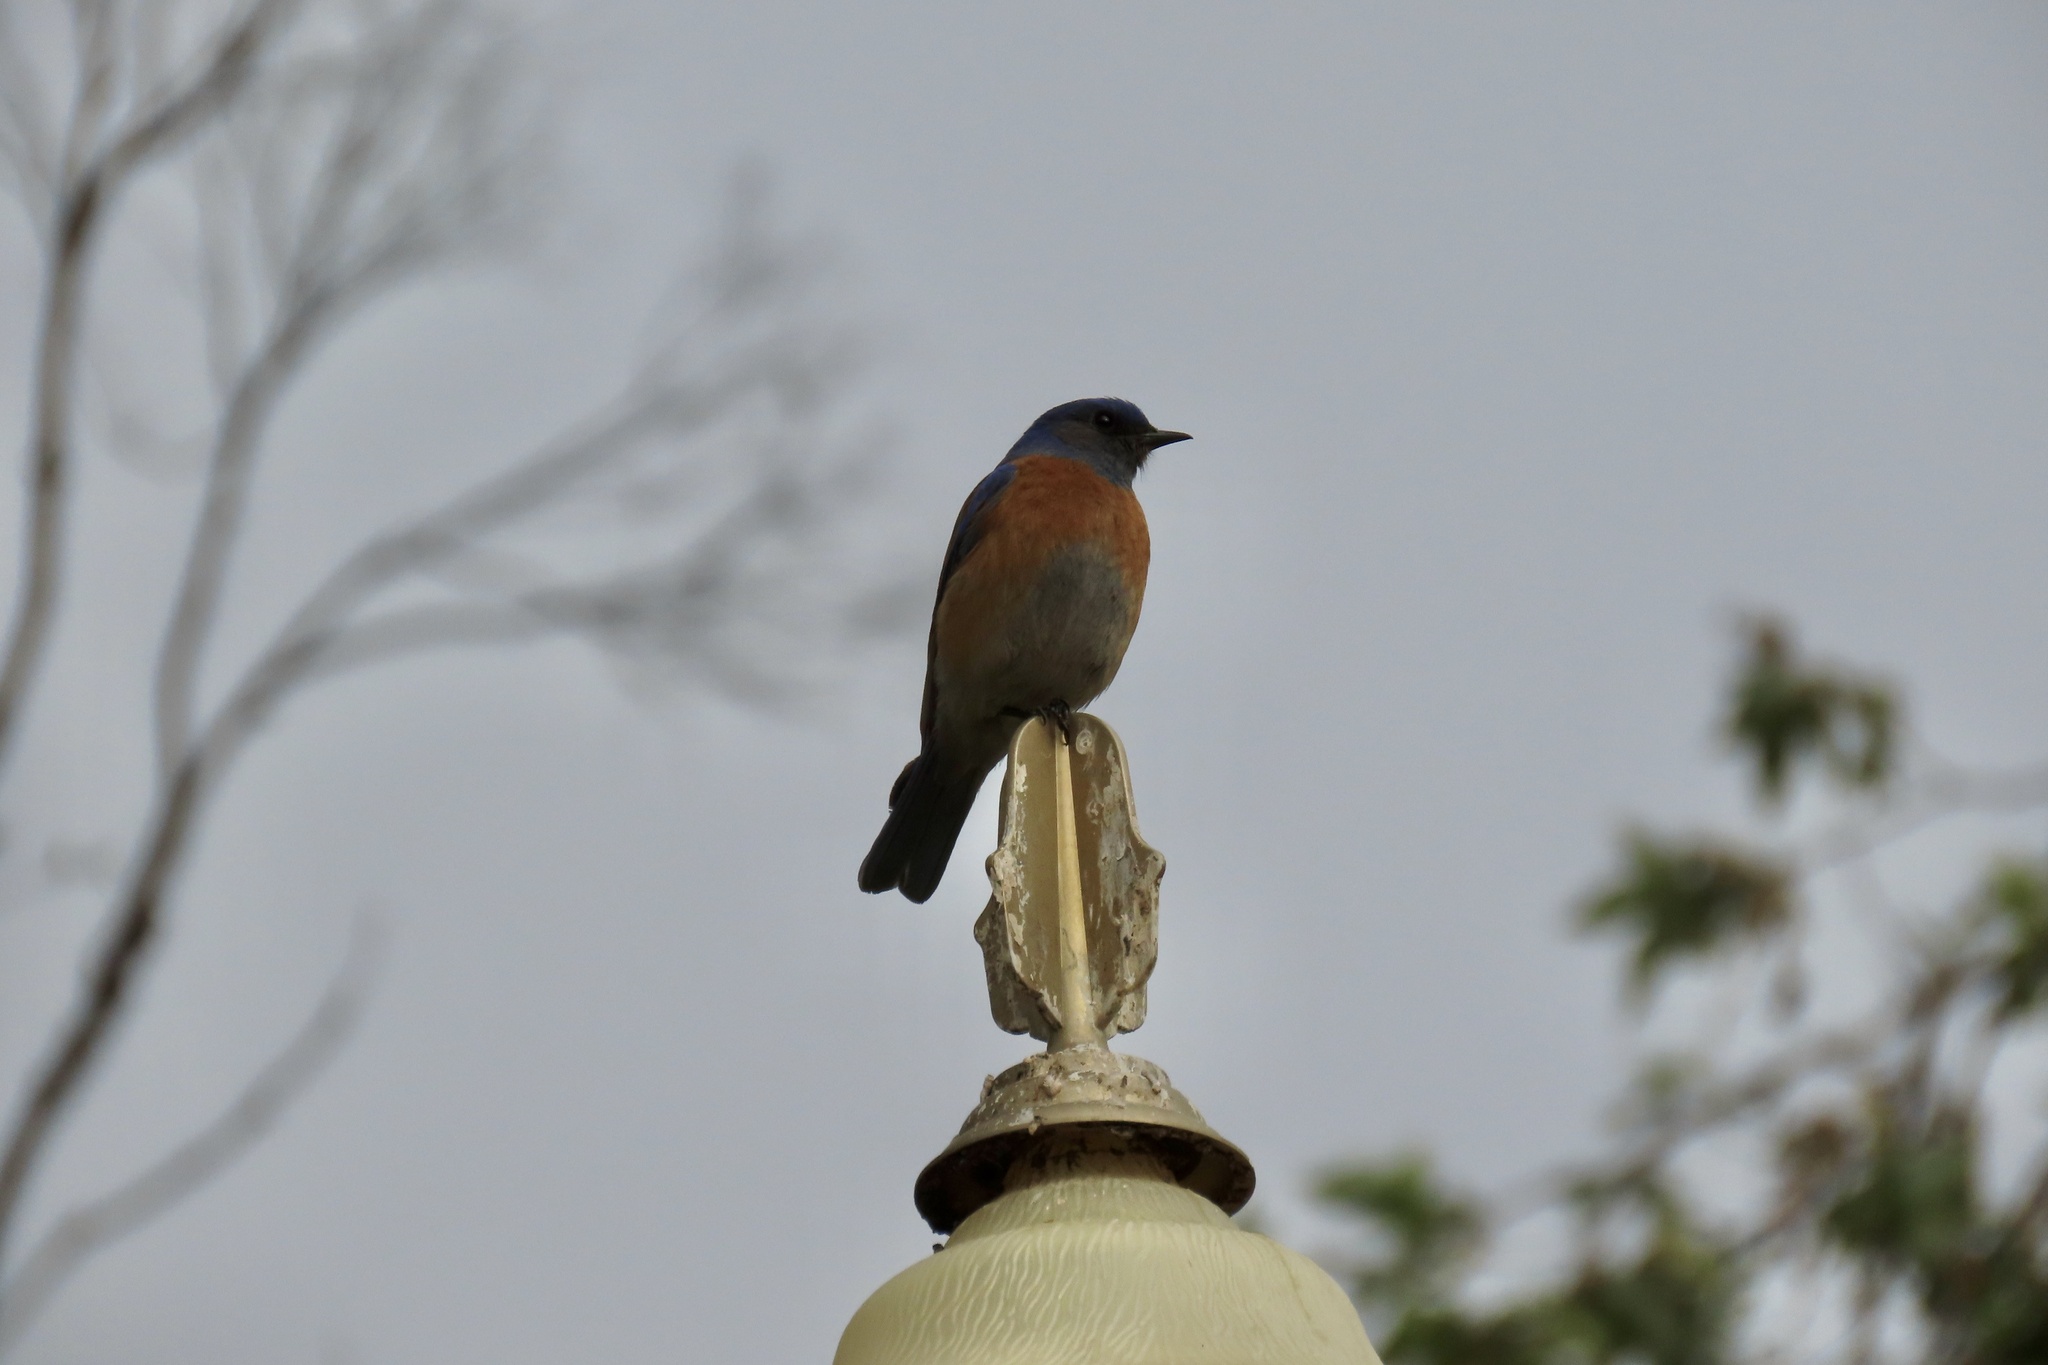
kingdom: Animalia
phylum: Chordata
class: Aves
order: Passeriformes
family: Turdidae
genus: Sialia
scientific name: Sialia mexicana
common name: Western bluebird
